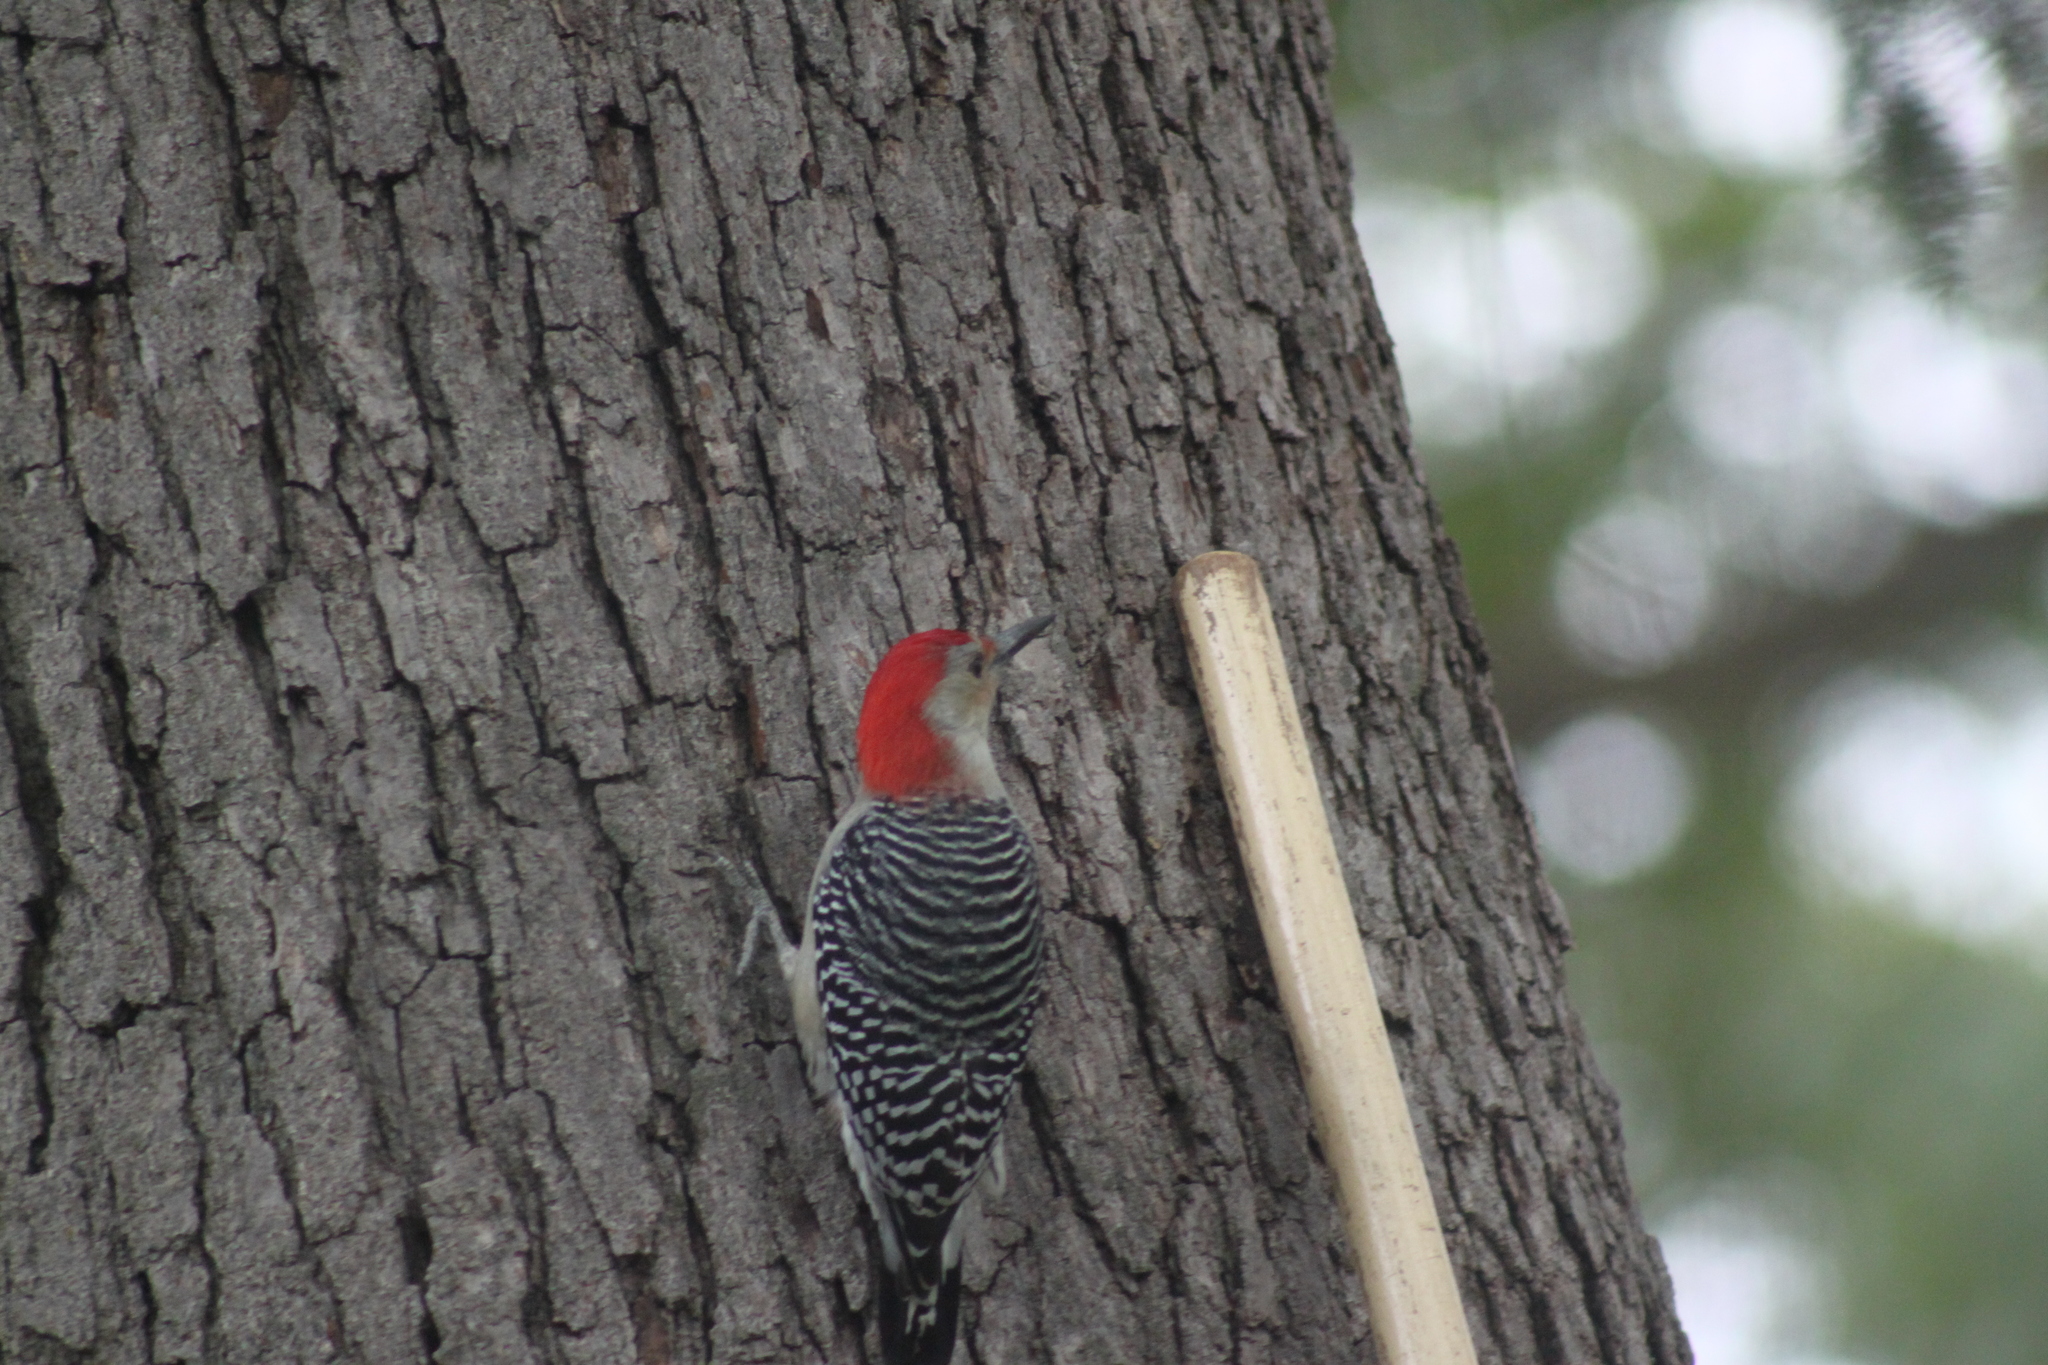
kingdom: Animalia
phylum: Chordata
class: Aves
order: Piciformes
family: Picidae
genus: Melanerpes
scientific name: Melanerpes carolinus
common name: Red-bellied woodpecker
